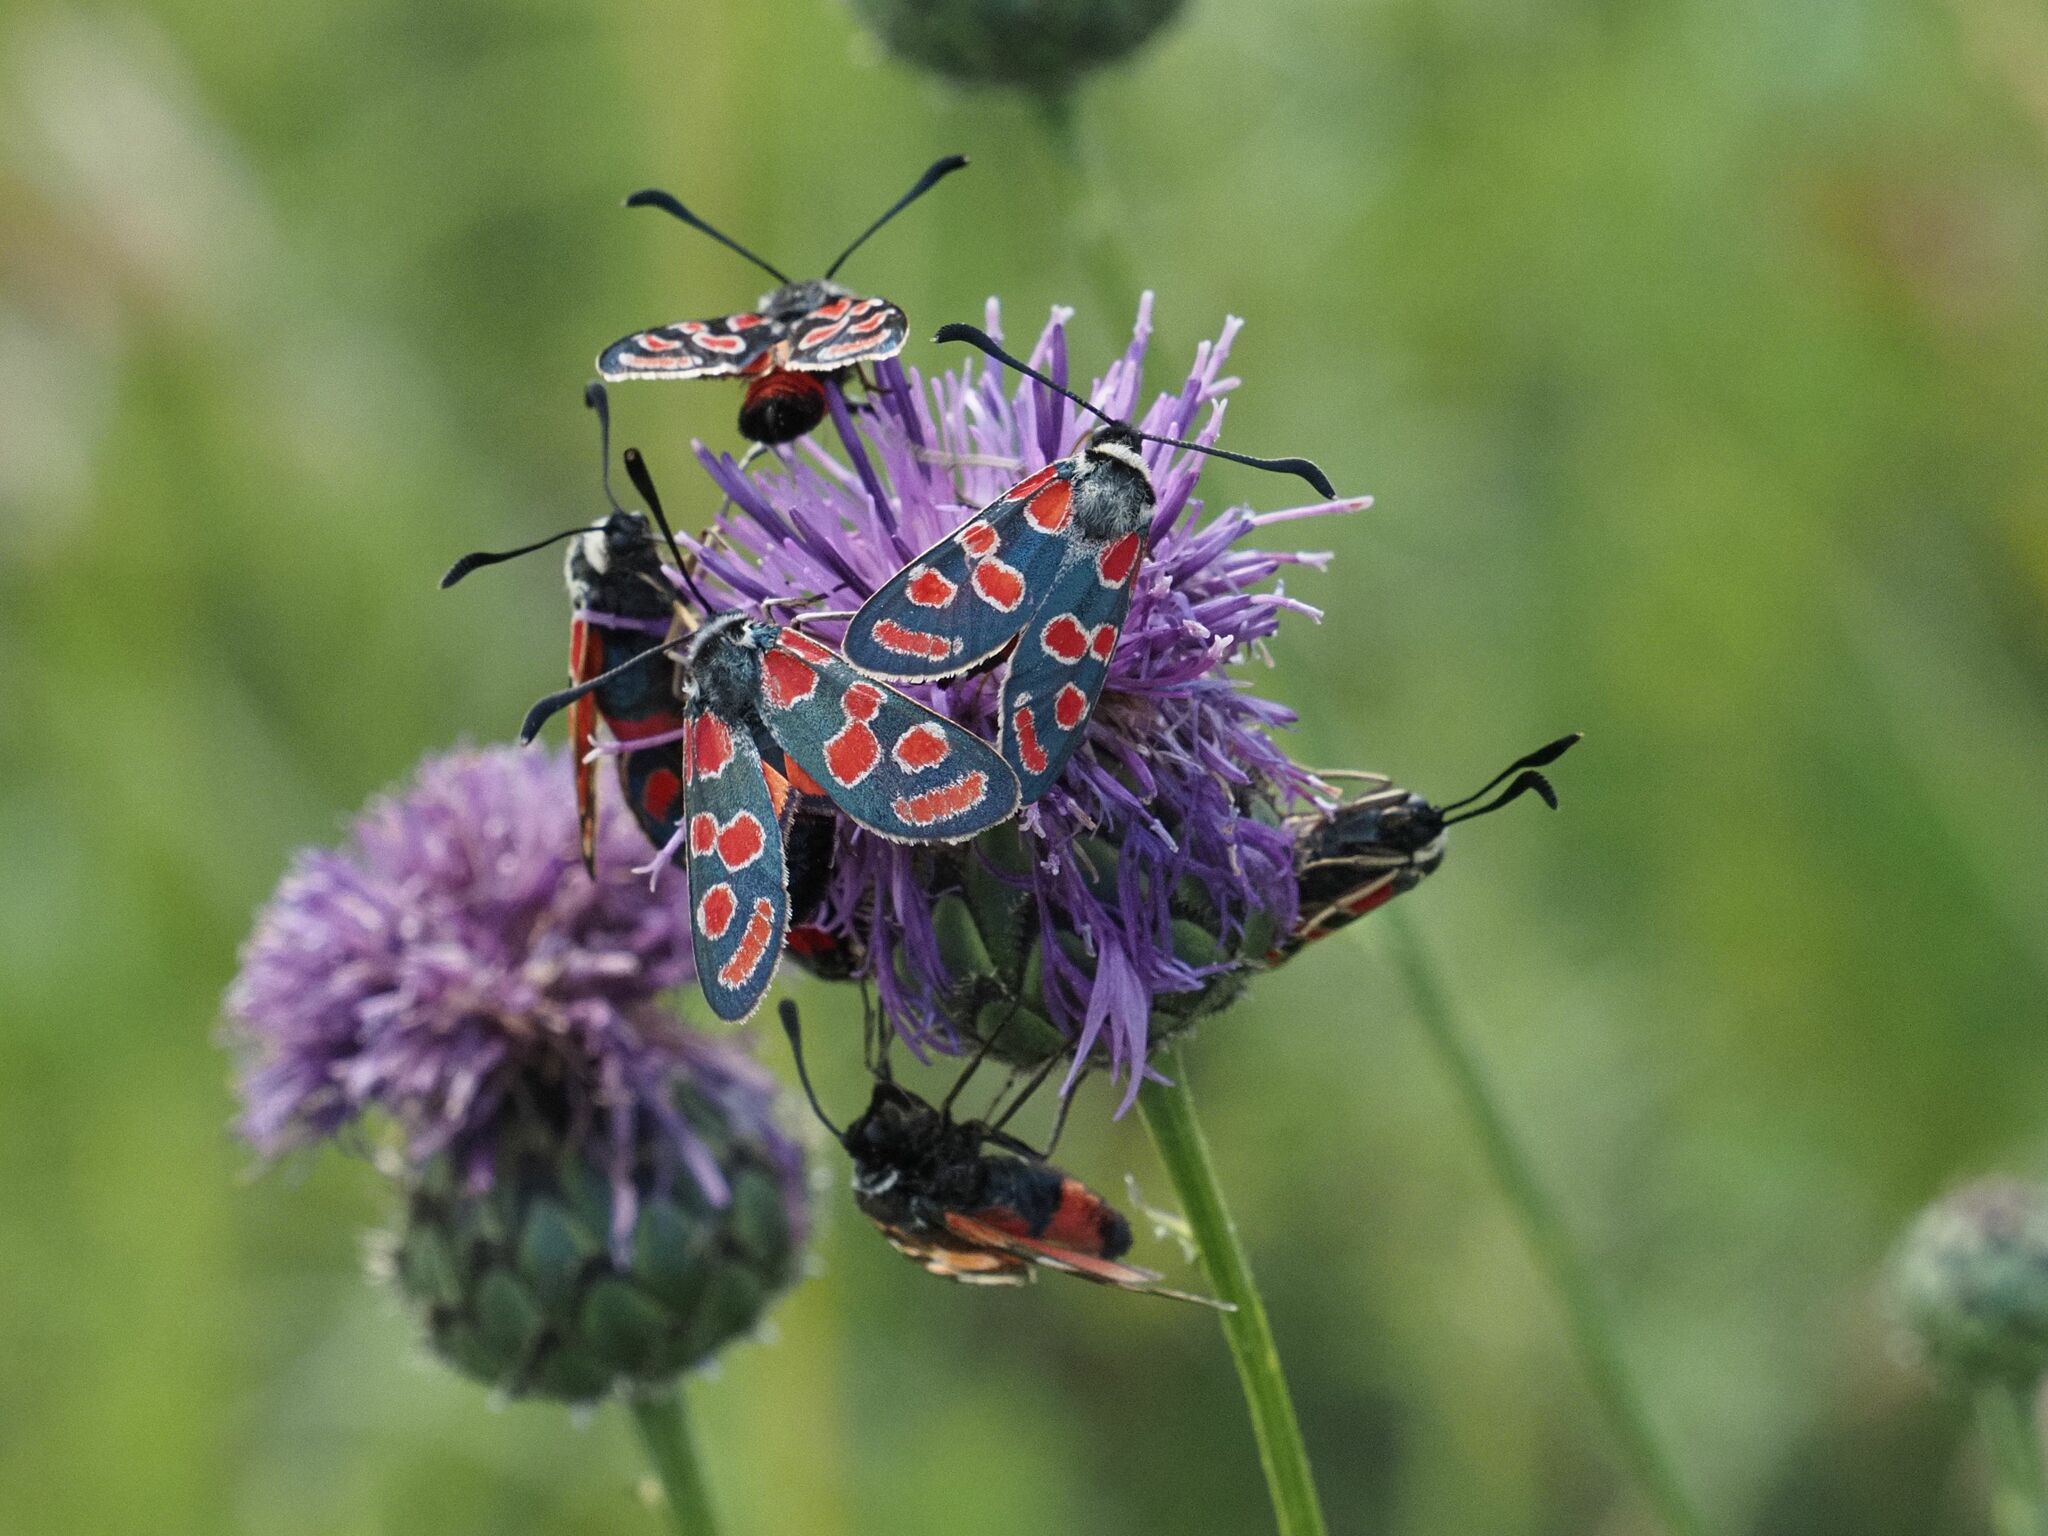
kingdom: Animalia
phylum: Arthropoda
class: Insecta
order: Lepidoptera
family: Zygaenidae
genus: Zygaena
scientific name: Zygaena carniolica
